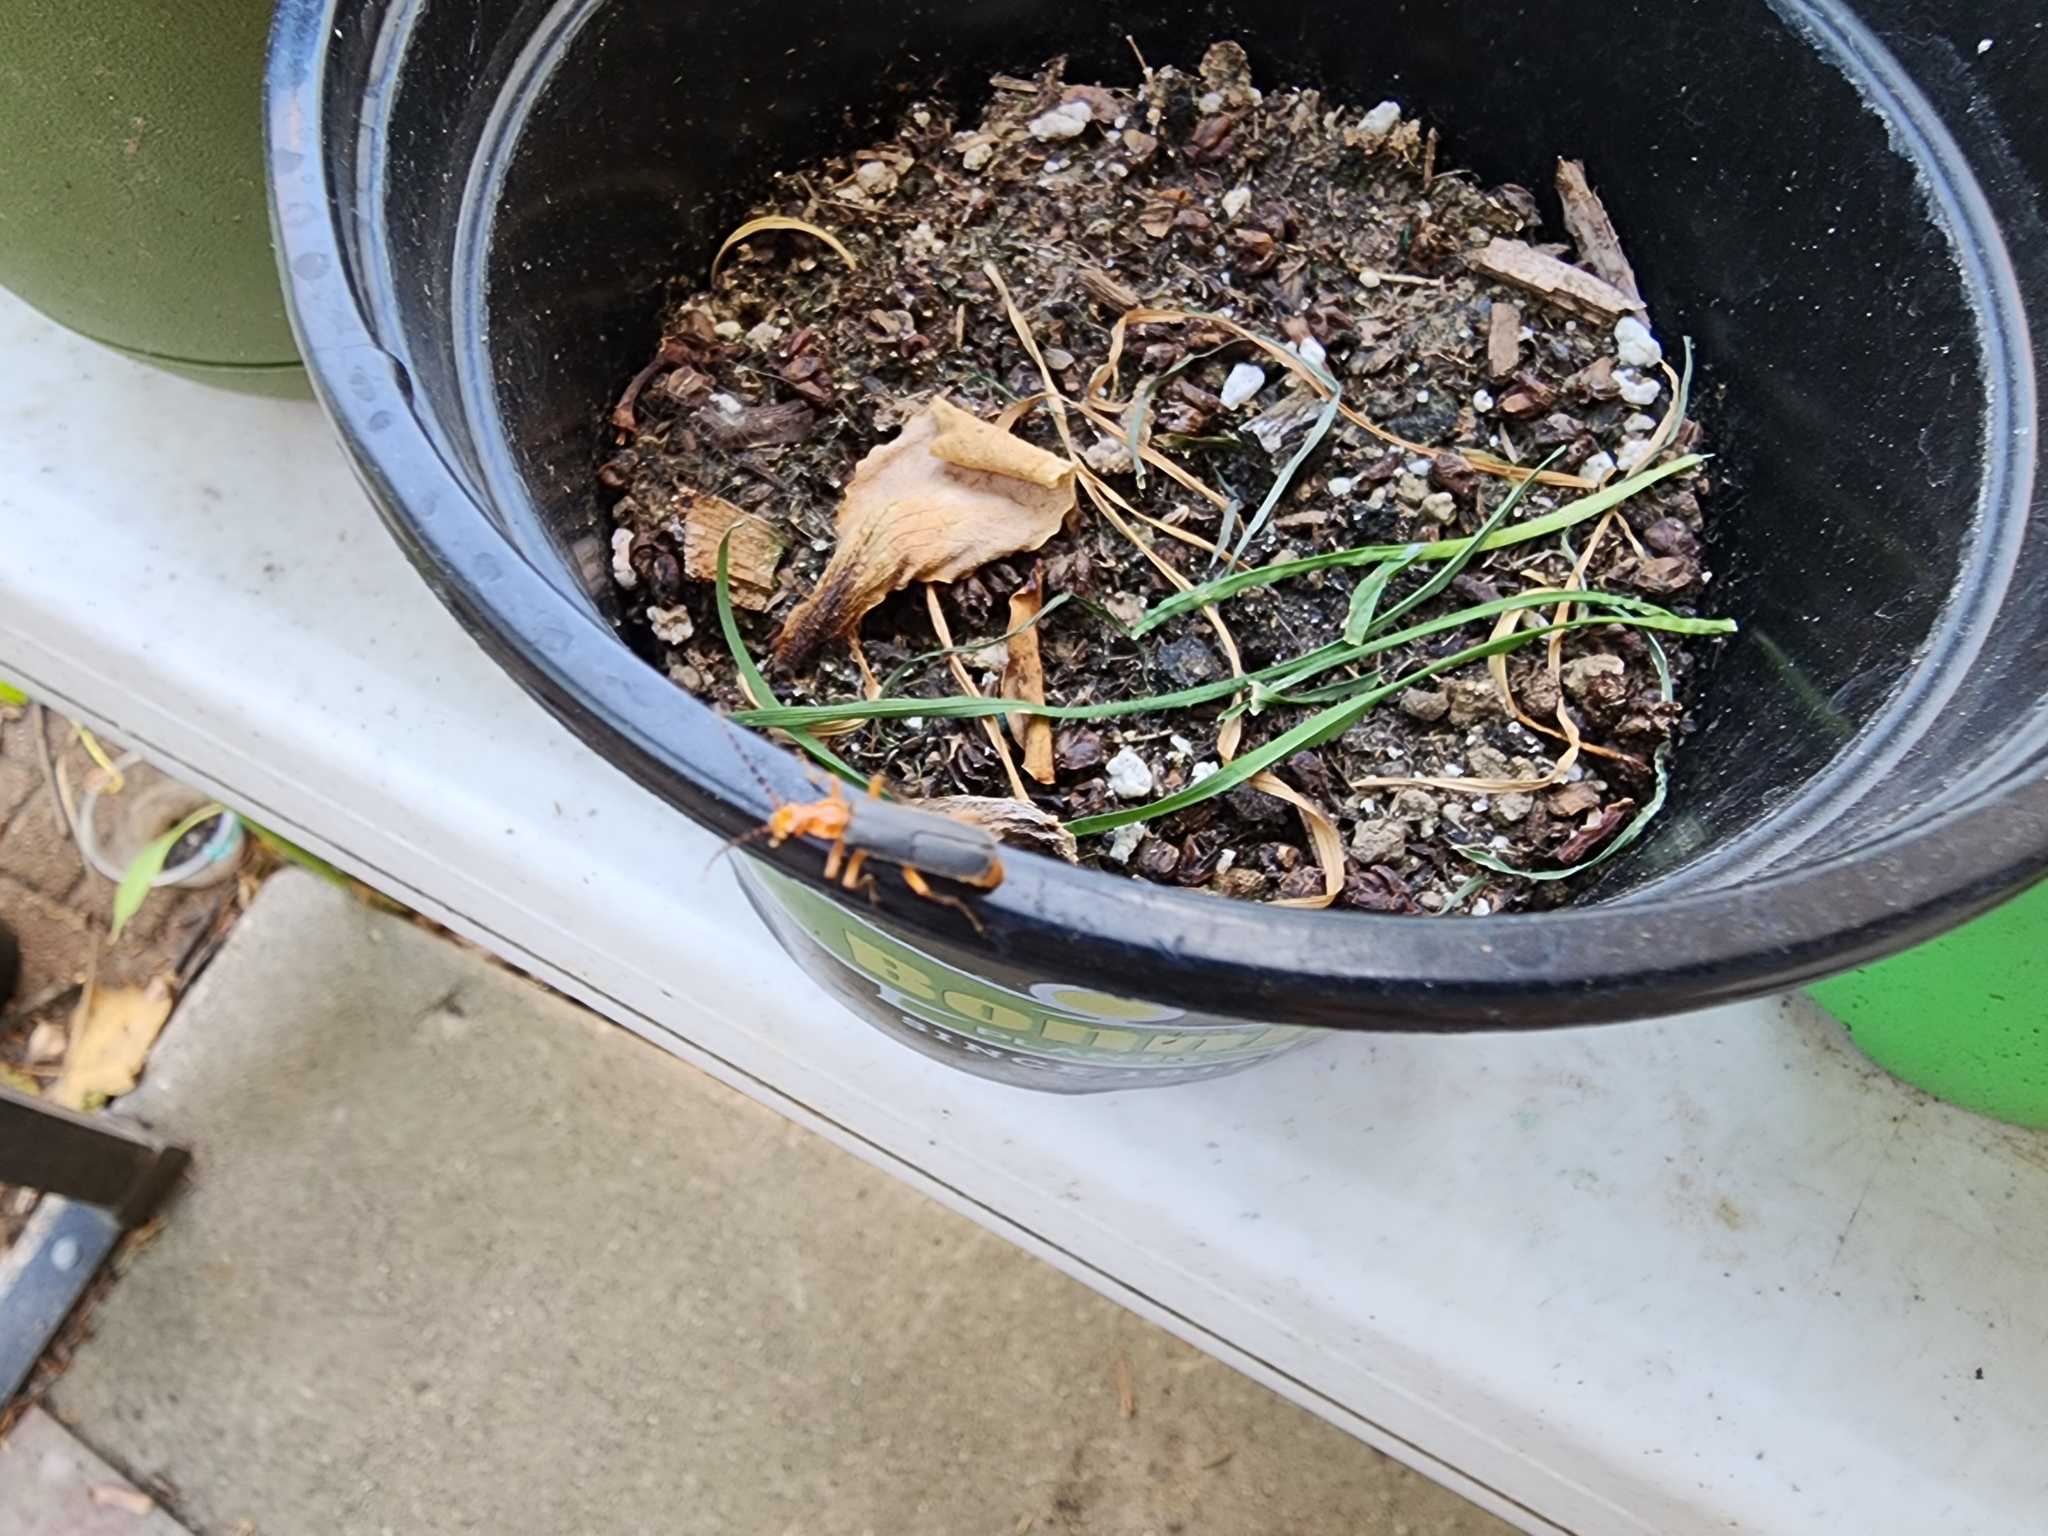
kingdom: Animalia
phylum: Arthropoda
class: Insecta
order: Coleoptera
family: Cantharidae
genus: Podabrus
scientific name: Podabrus tomentosus
